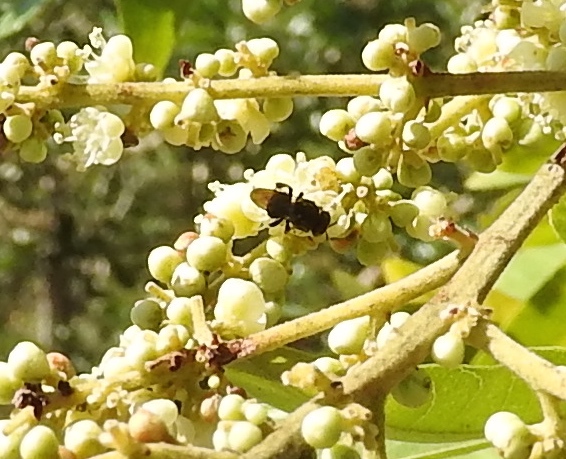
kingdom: Animalia
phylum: Arthropoda
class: Insecta
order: Hymenoptera
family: Apidae
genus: Nannotrigona
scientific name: Nannotrigona perilampoides
